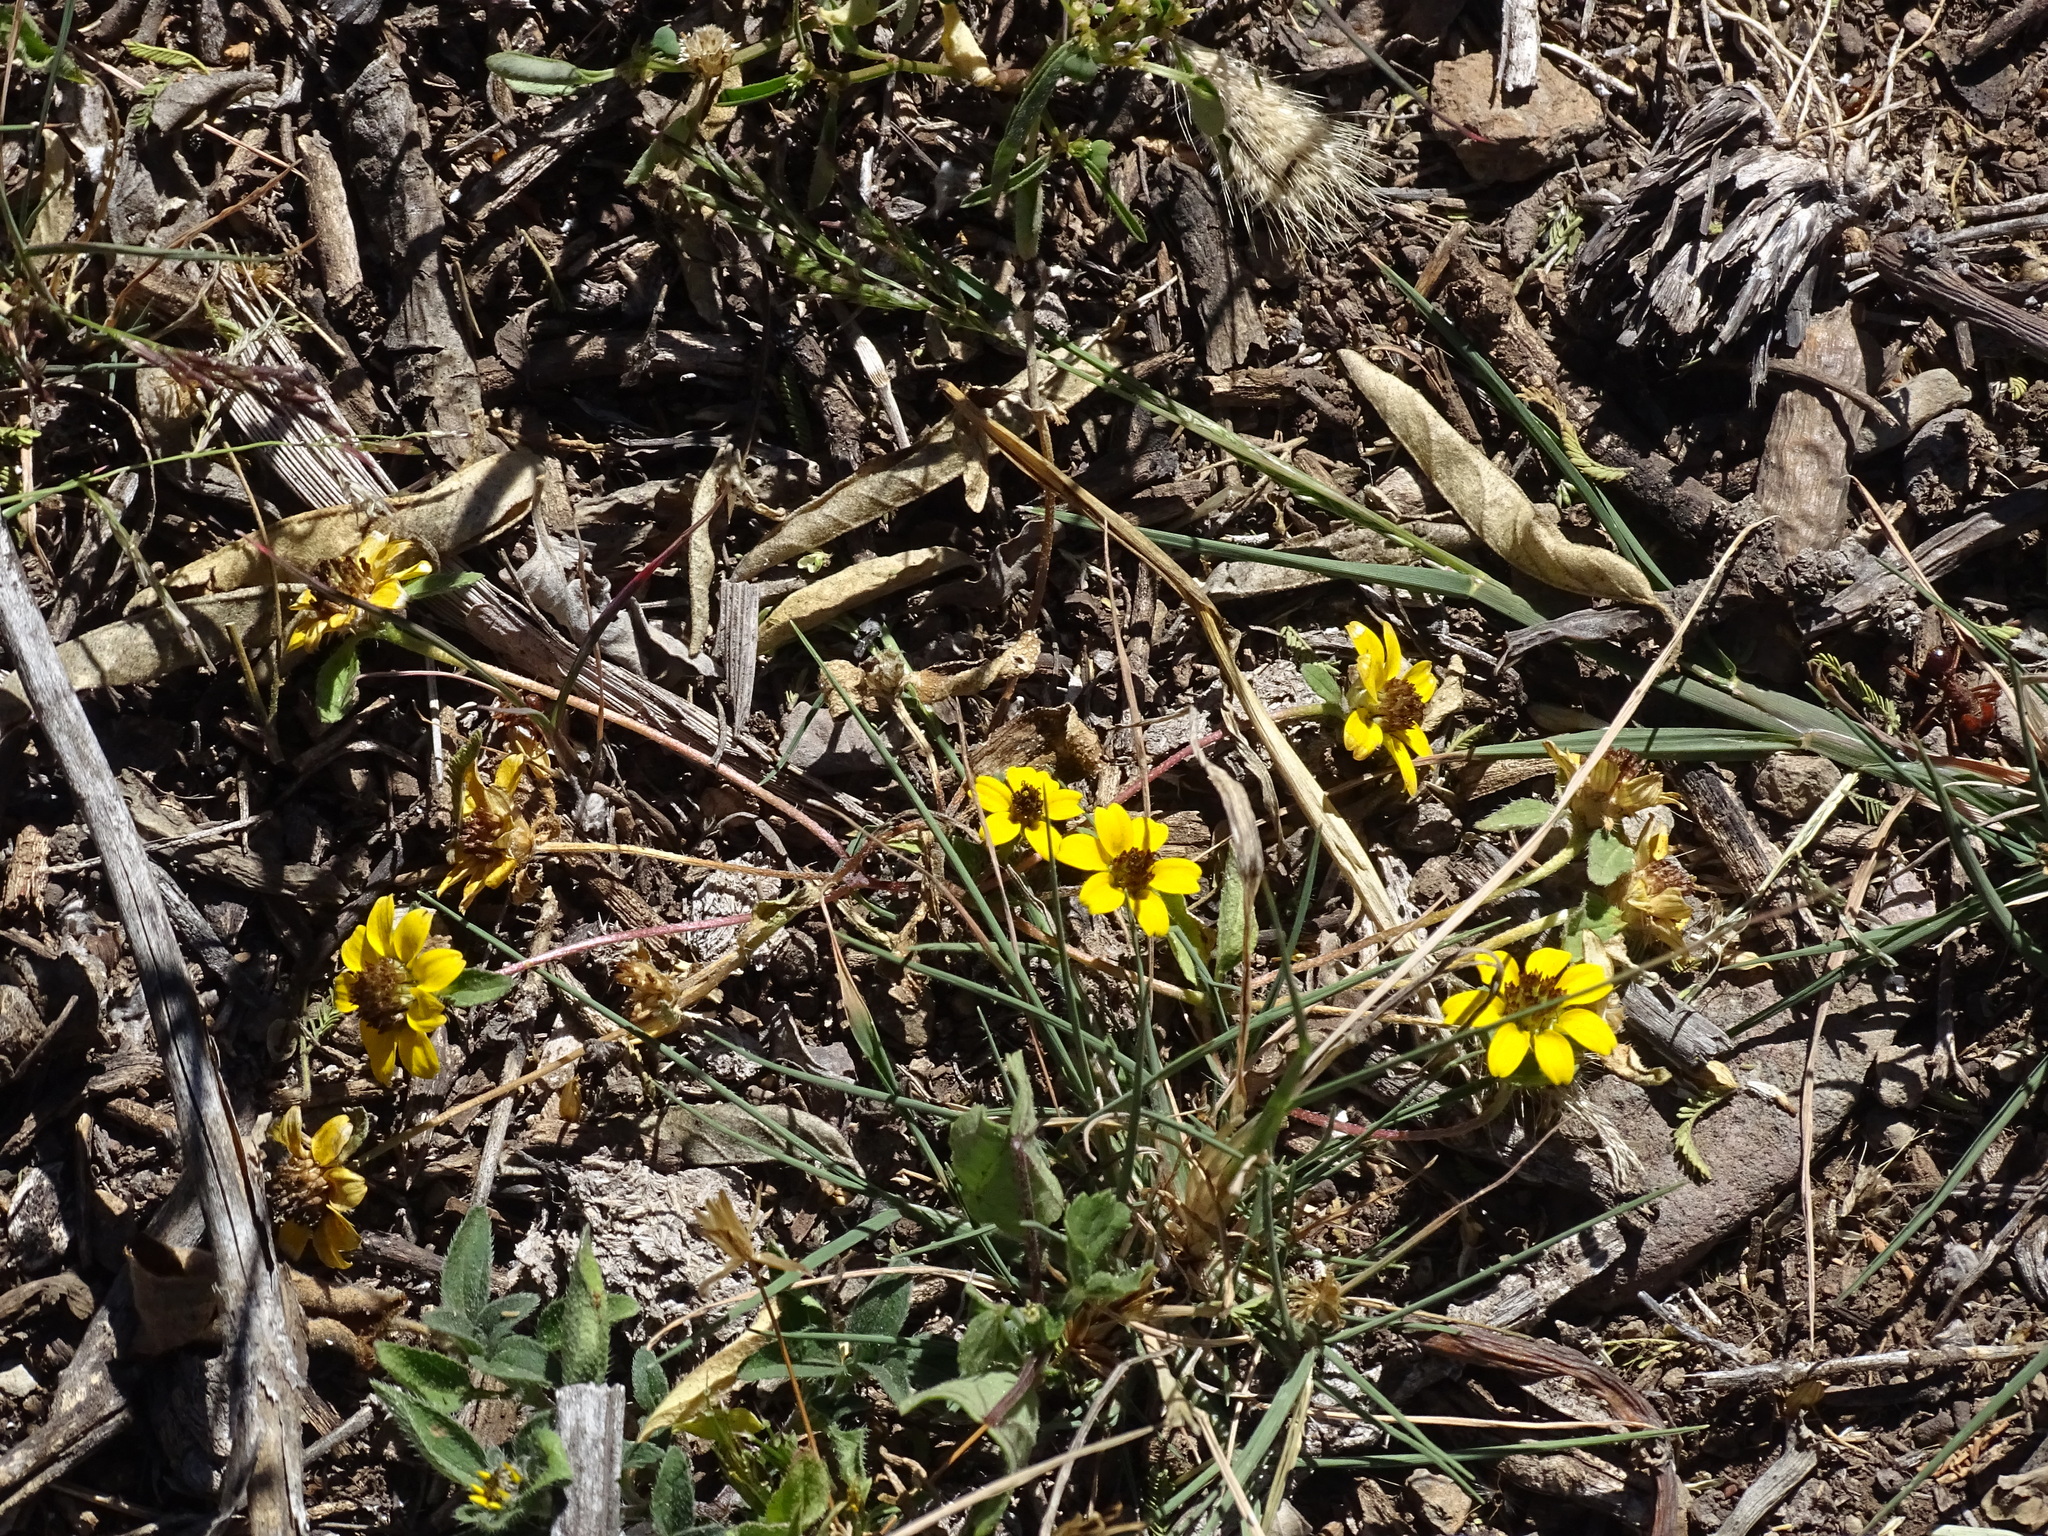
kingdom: Plantae
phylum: Tracheophyta
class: Magnoliopsida
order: Asterales
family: Asteraceae
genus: Sanvitalia
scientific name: Sanvitalia procumbens
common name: Mexican creeping zinnia
